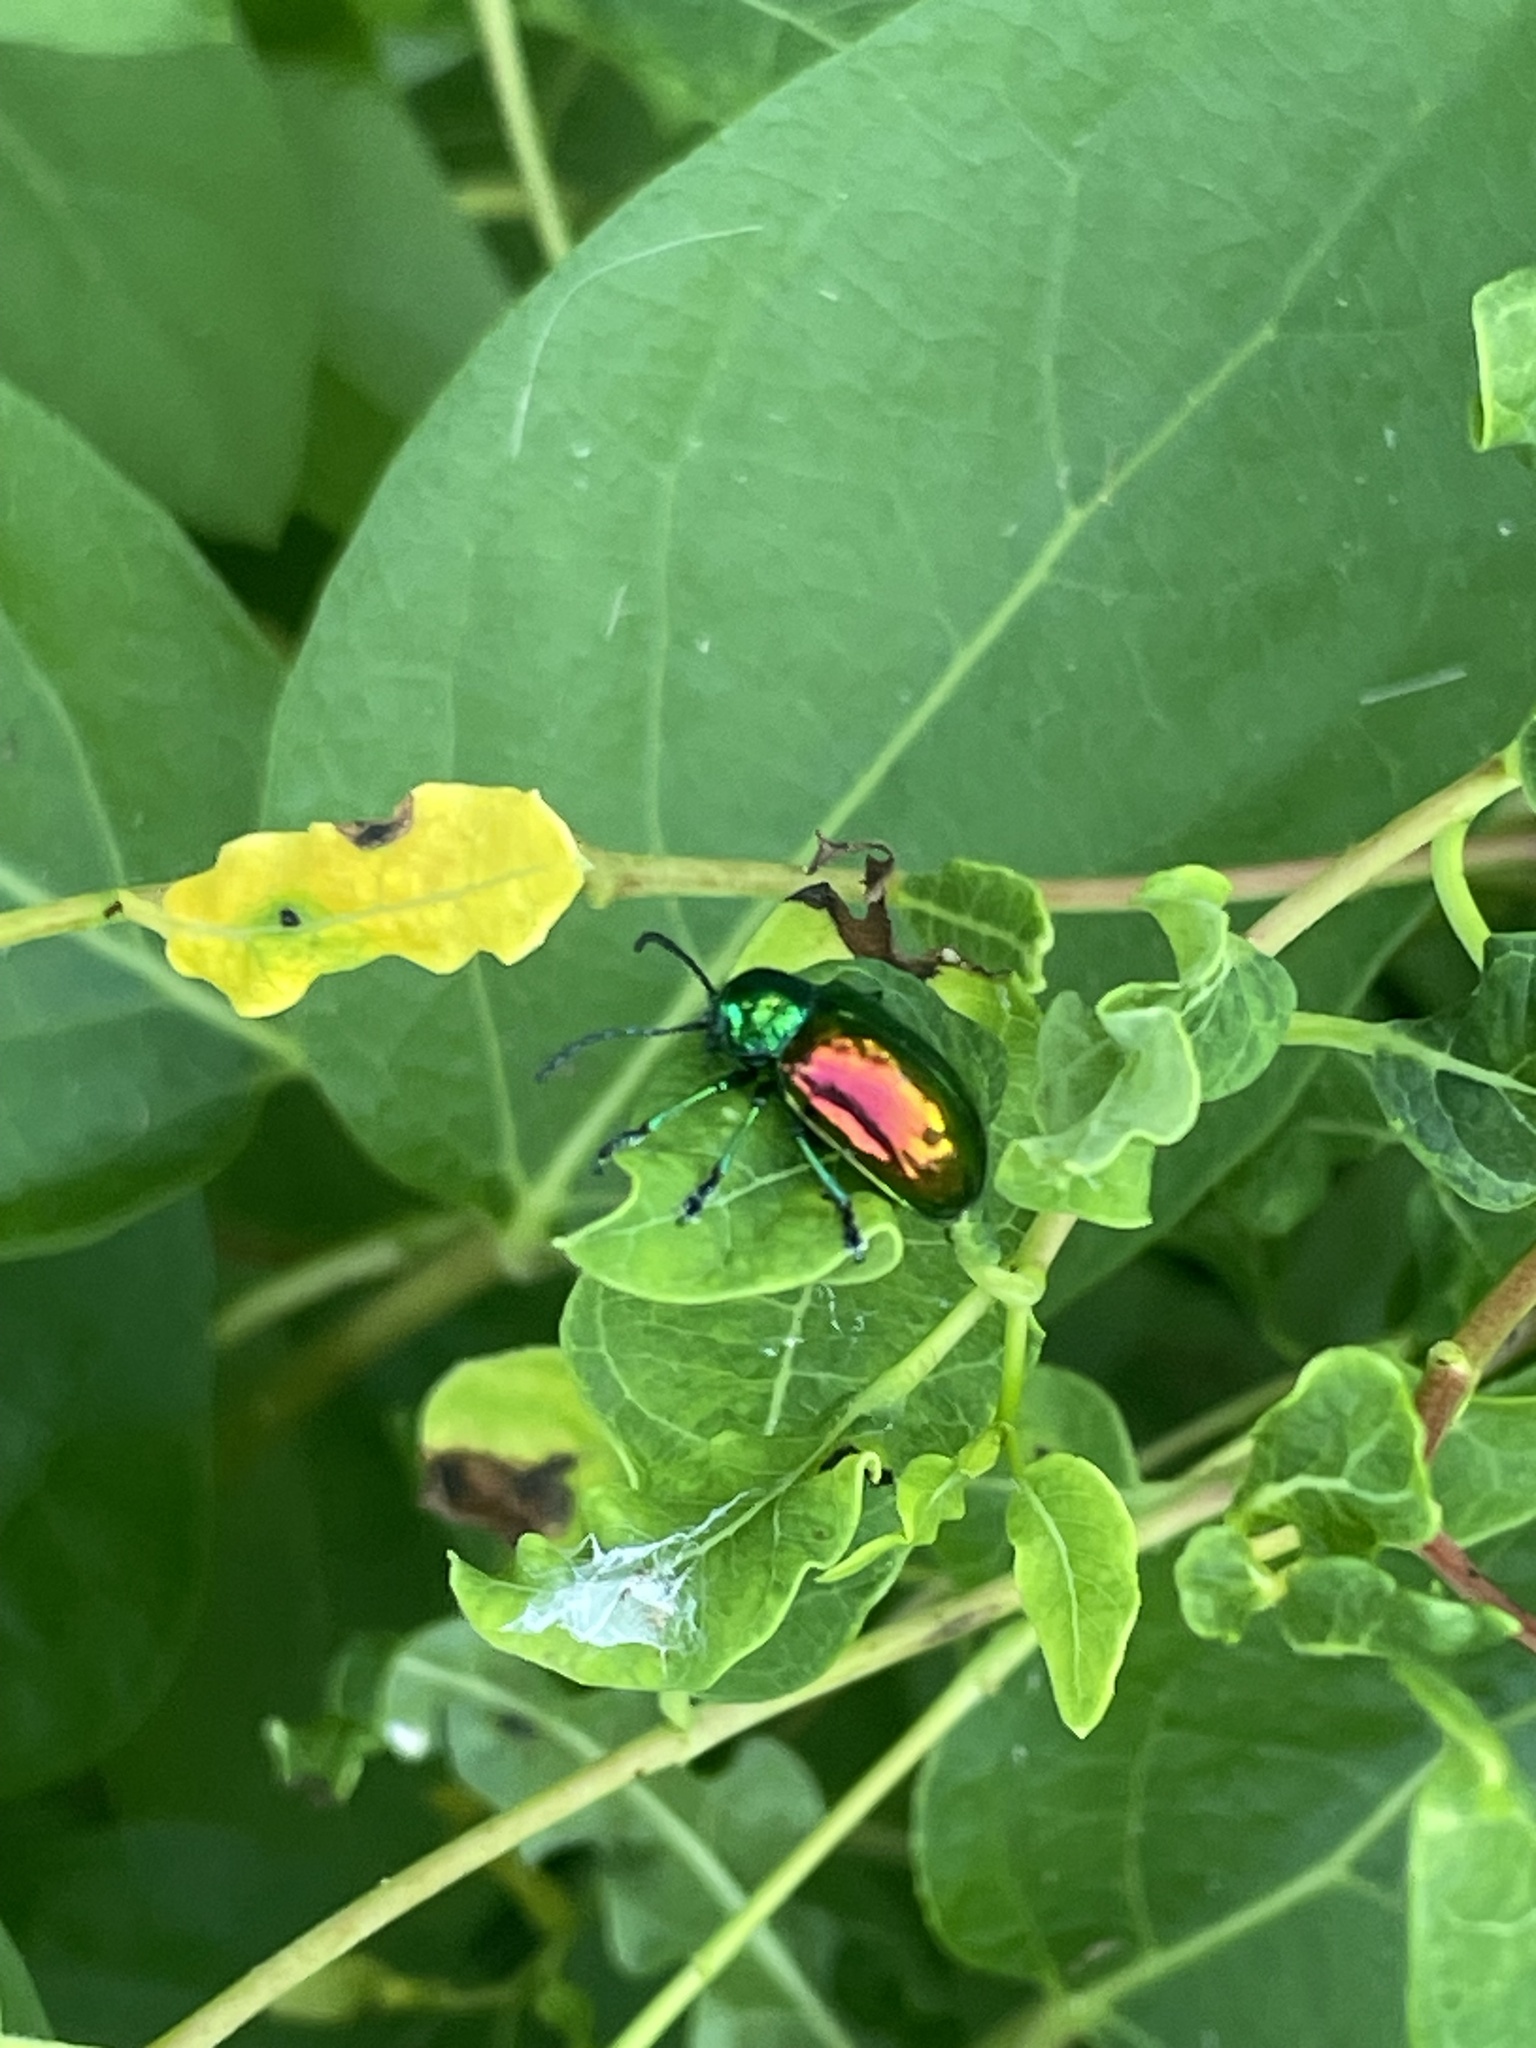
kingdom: Animalia
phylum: Arthropoda
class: Insecta
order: Coleoptera
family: Chrysomelidae
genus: Chrysochus
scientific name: Chrysochus auratus
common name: Dogbane leaf beetle
